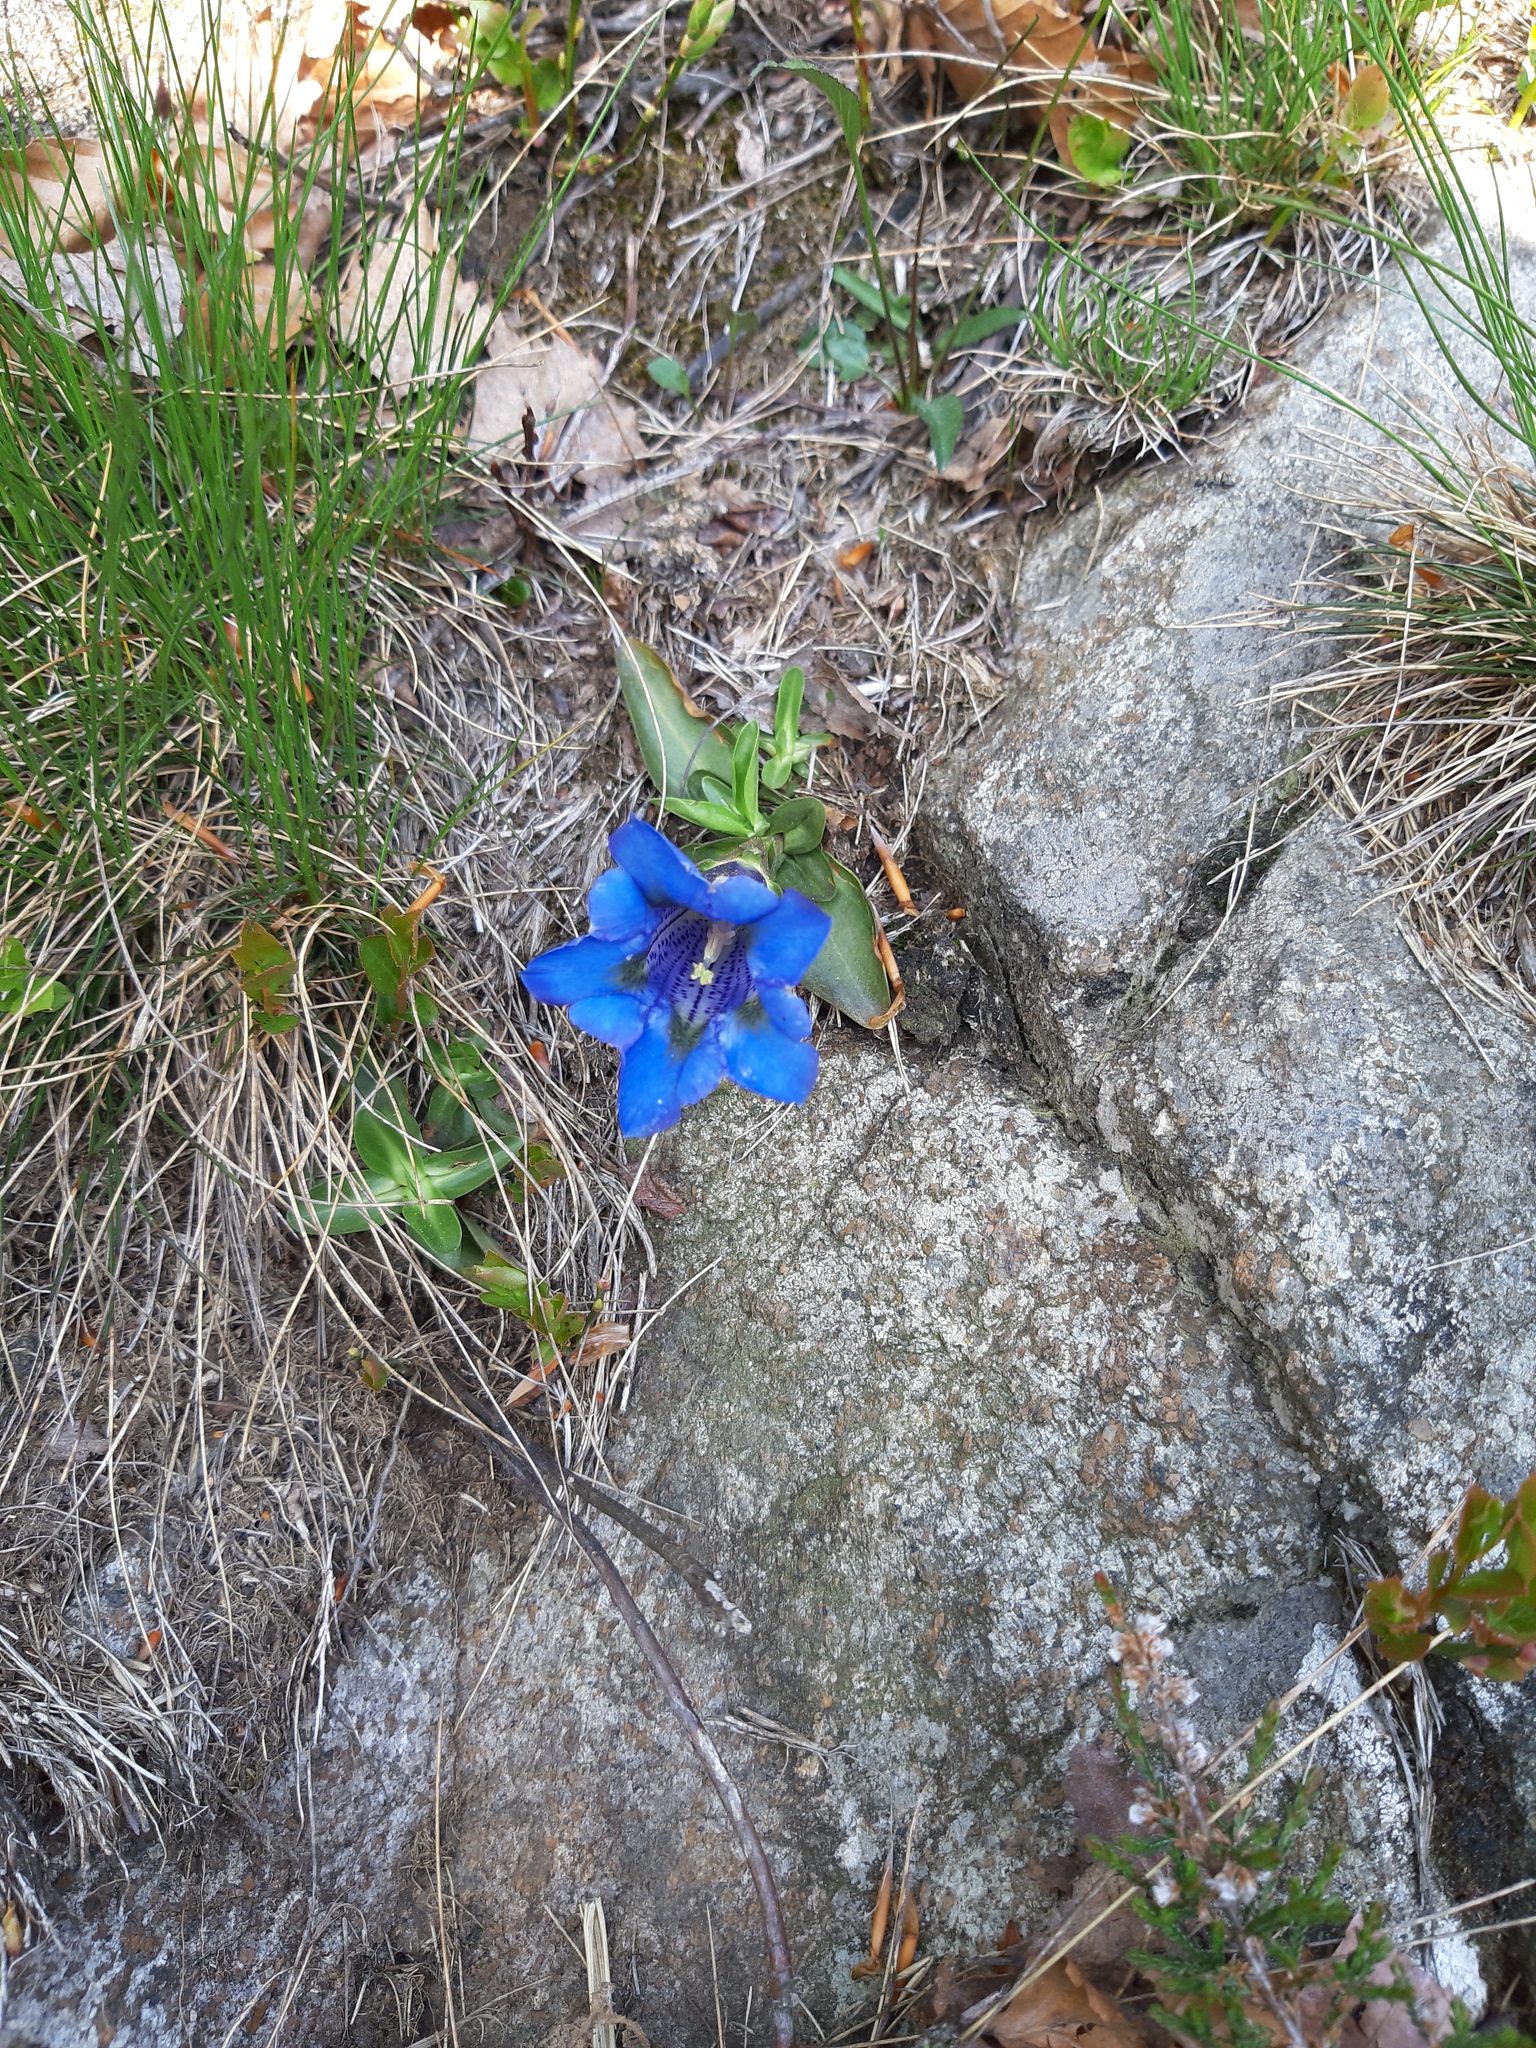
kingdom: Plantae
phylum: Tracheophyta
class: Magnoliopsida
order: Gentianales
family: Gentianaceae
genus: Gentiana
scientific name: Gentiana acaulis
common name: Trumpet gentian
